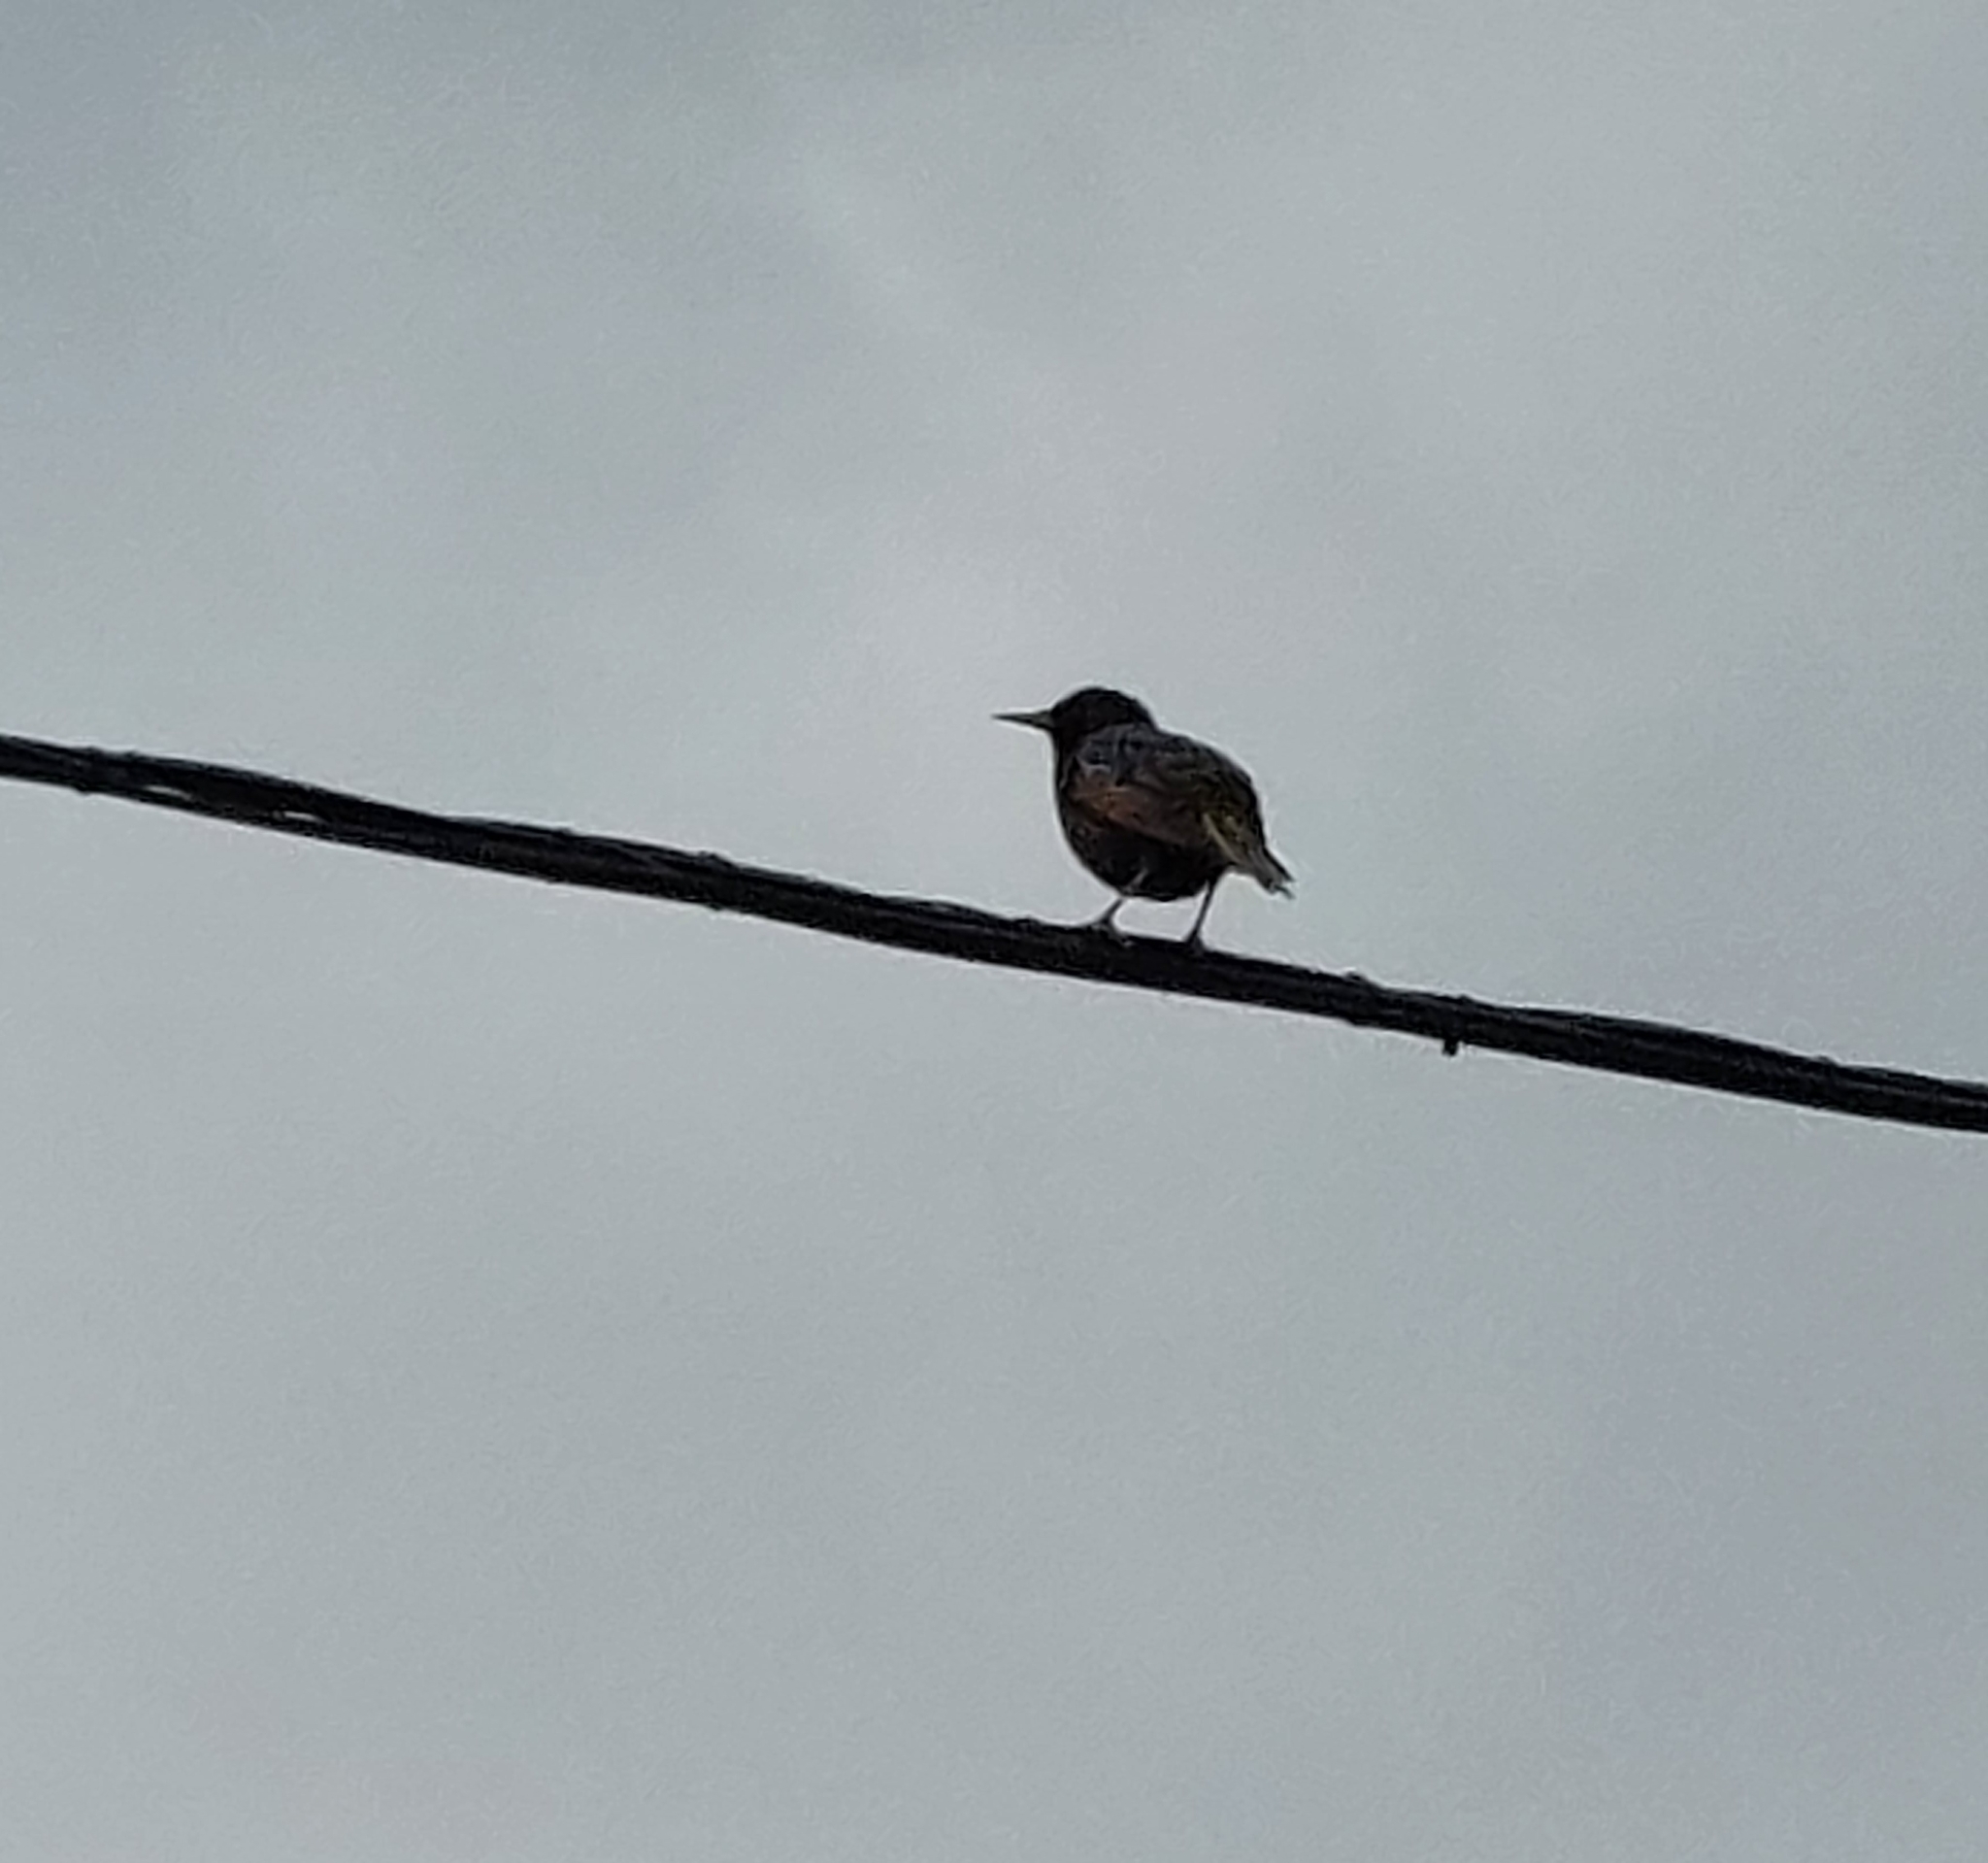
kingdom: Animalia
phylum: Chordata
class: Aves
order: Passeriformes
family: Sturnidae
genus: Sturnus
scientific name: Sturnus vulgaris
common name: Common starling
